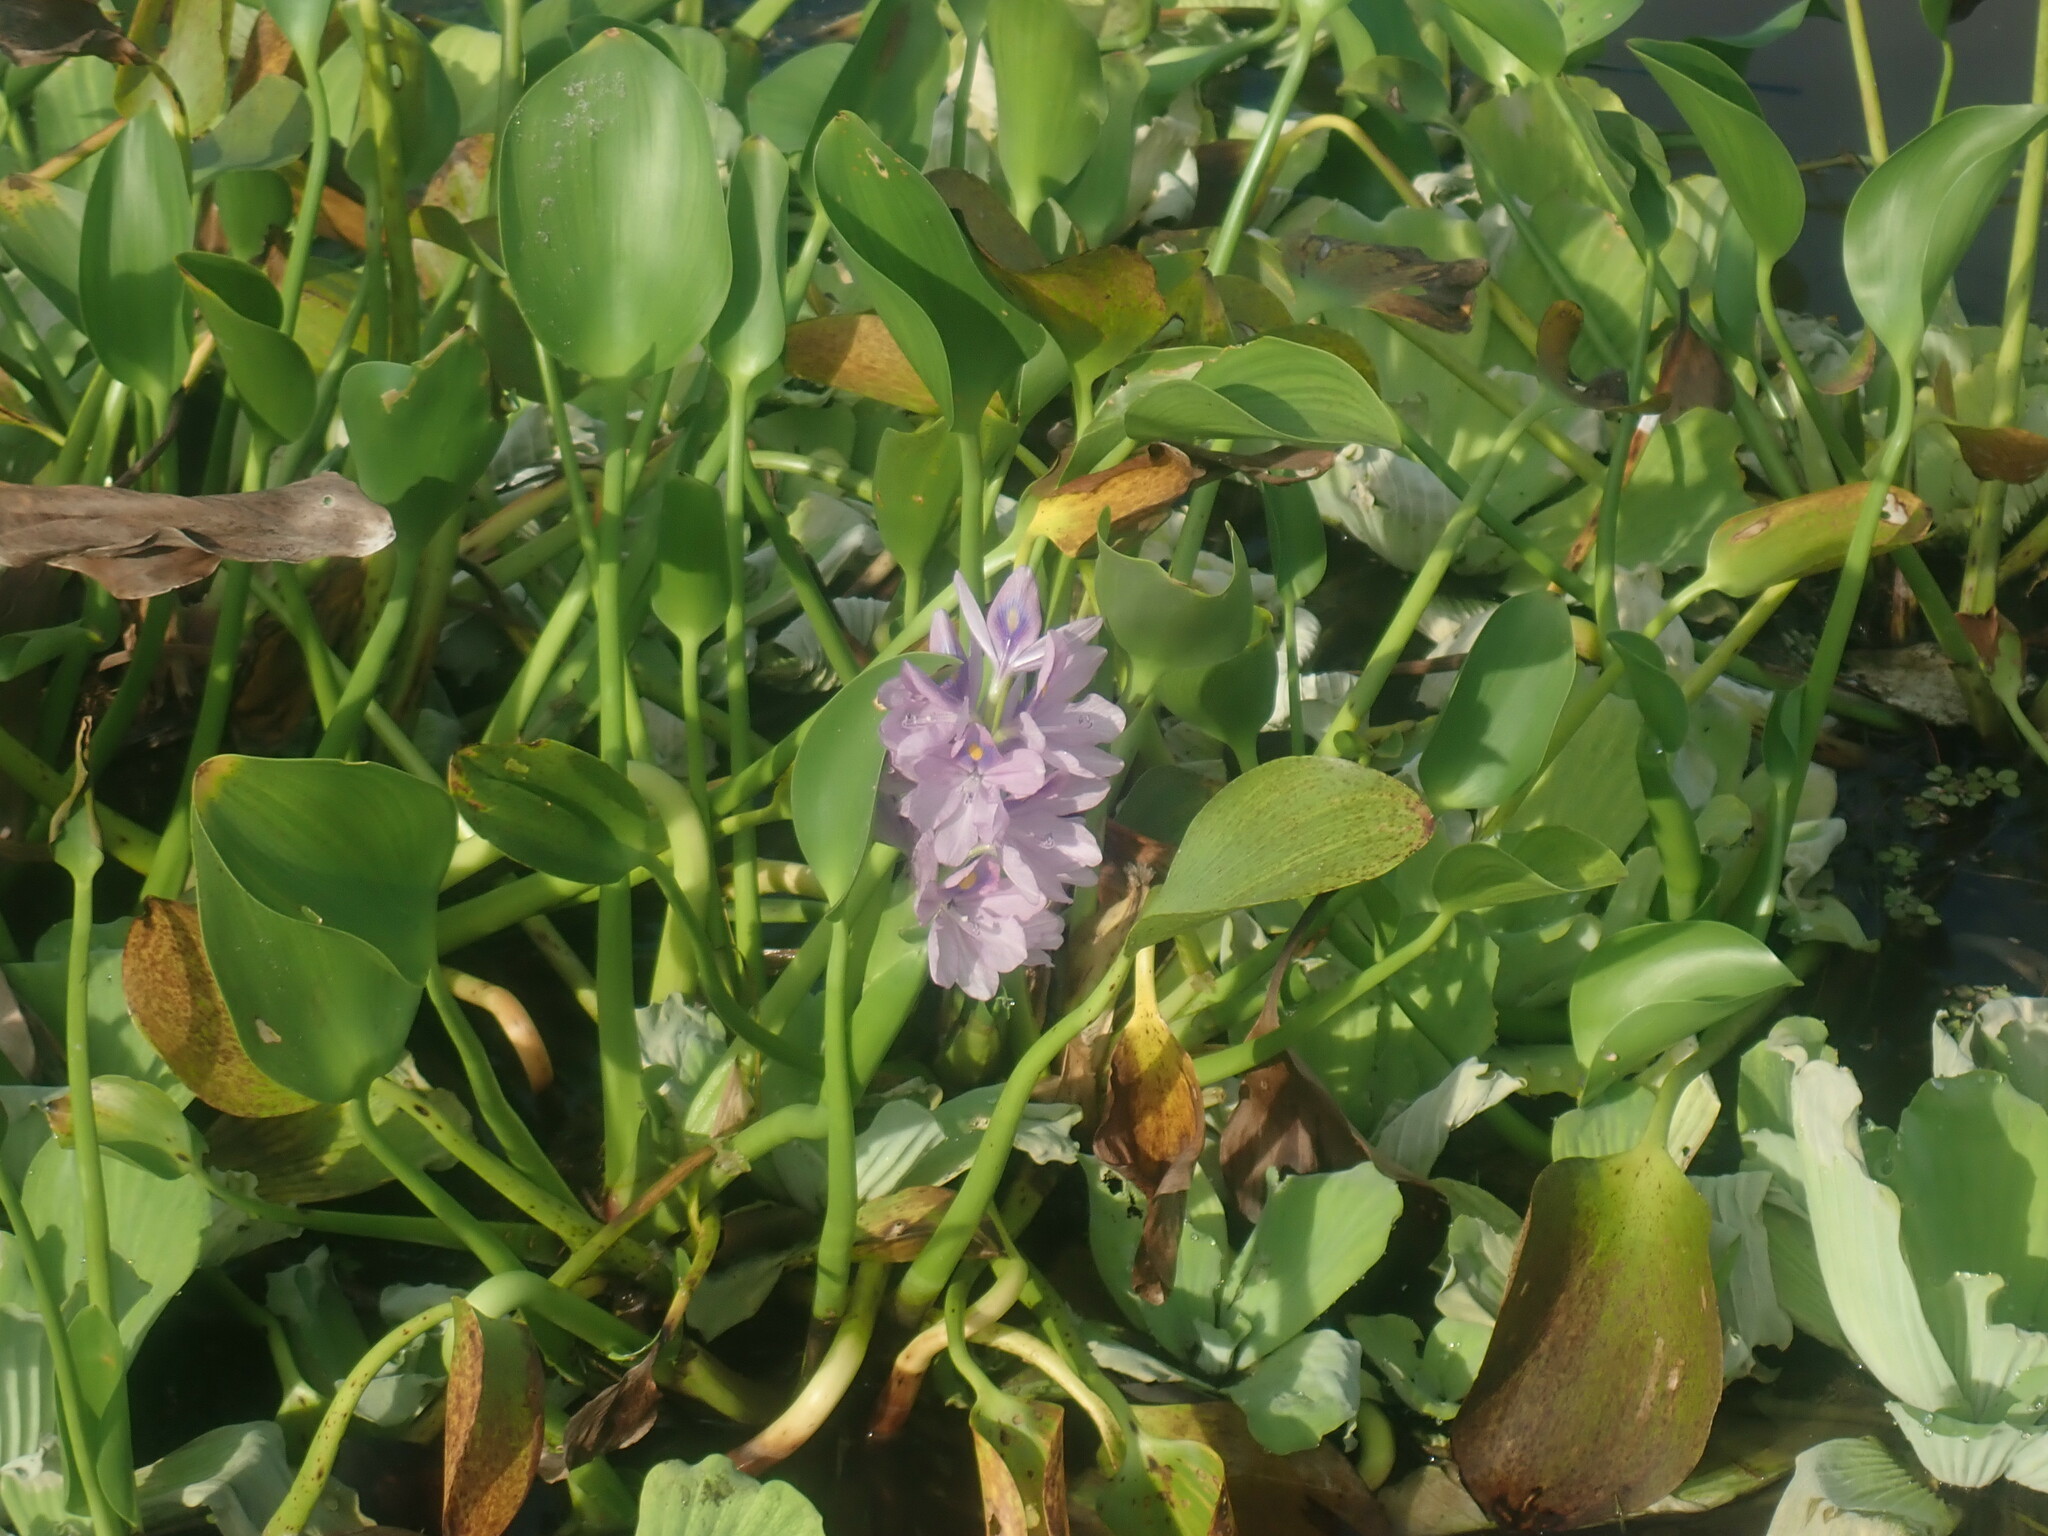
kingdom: Plantae
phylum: Tracheophyta
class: Liliopsida
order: Commelinales
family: Pontederiaceae
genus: Pontederia
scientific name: Pontederia crassipes
